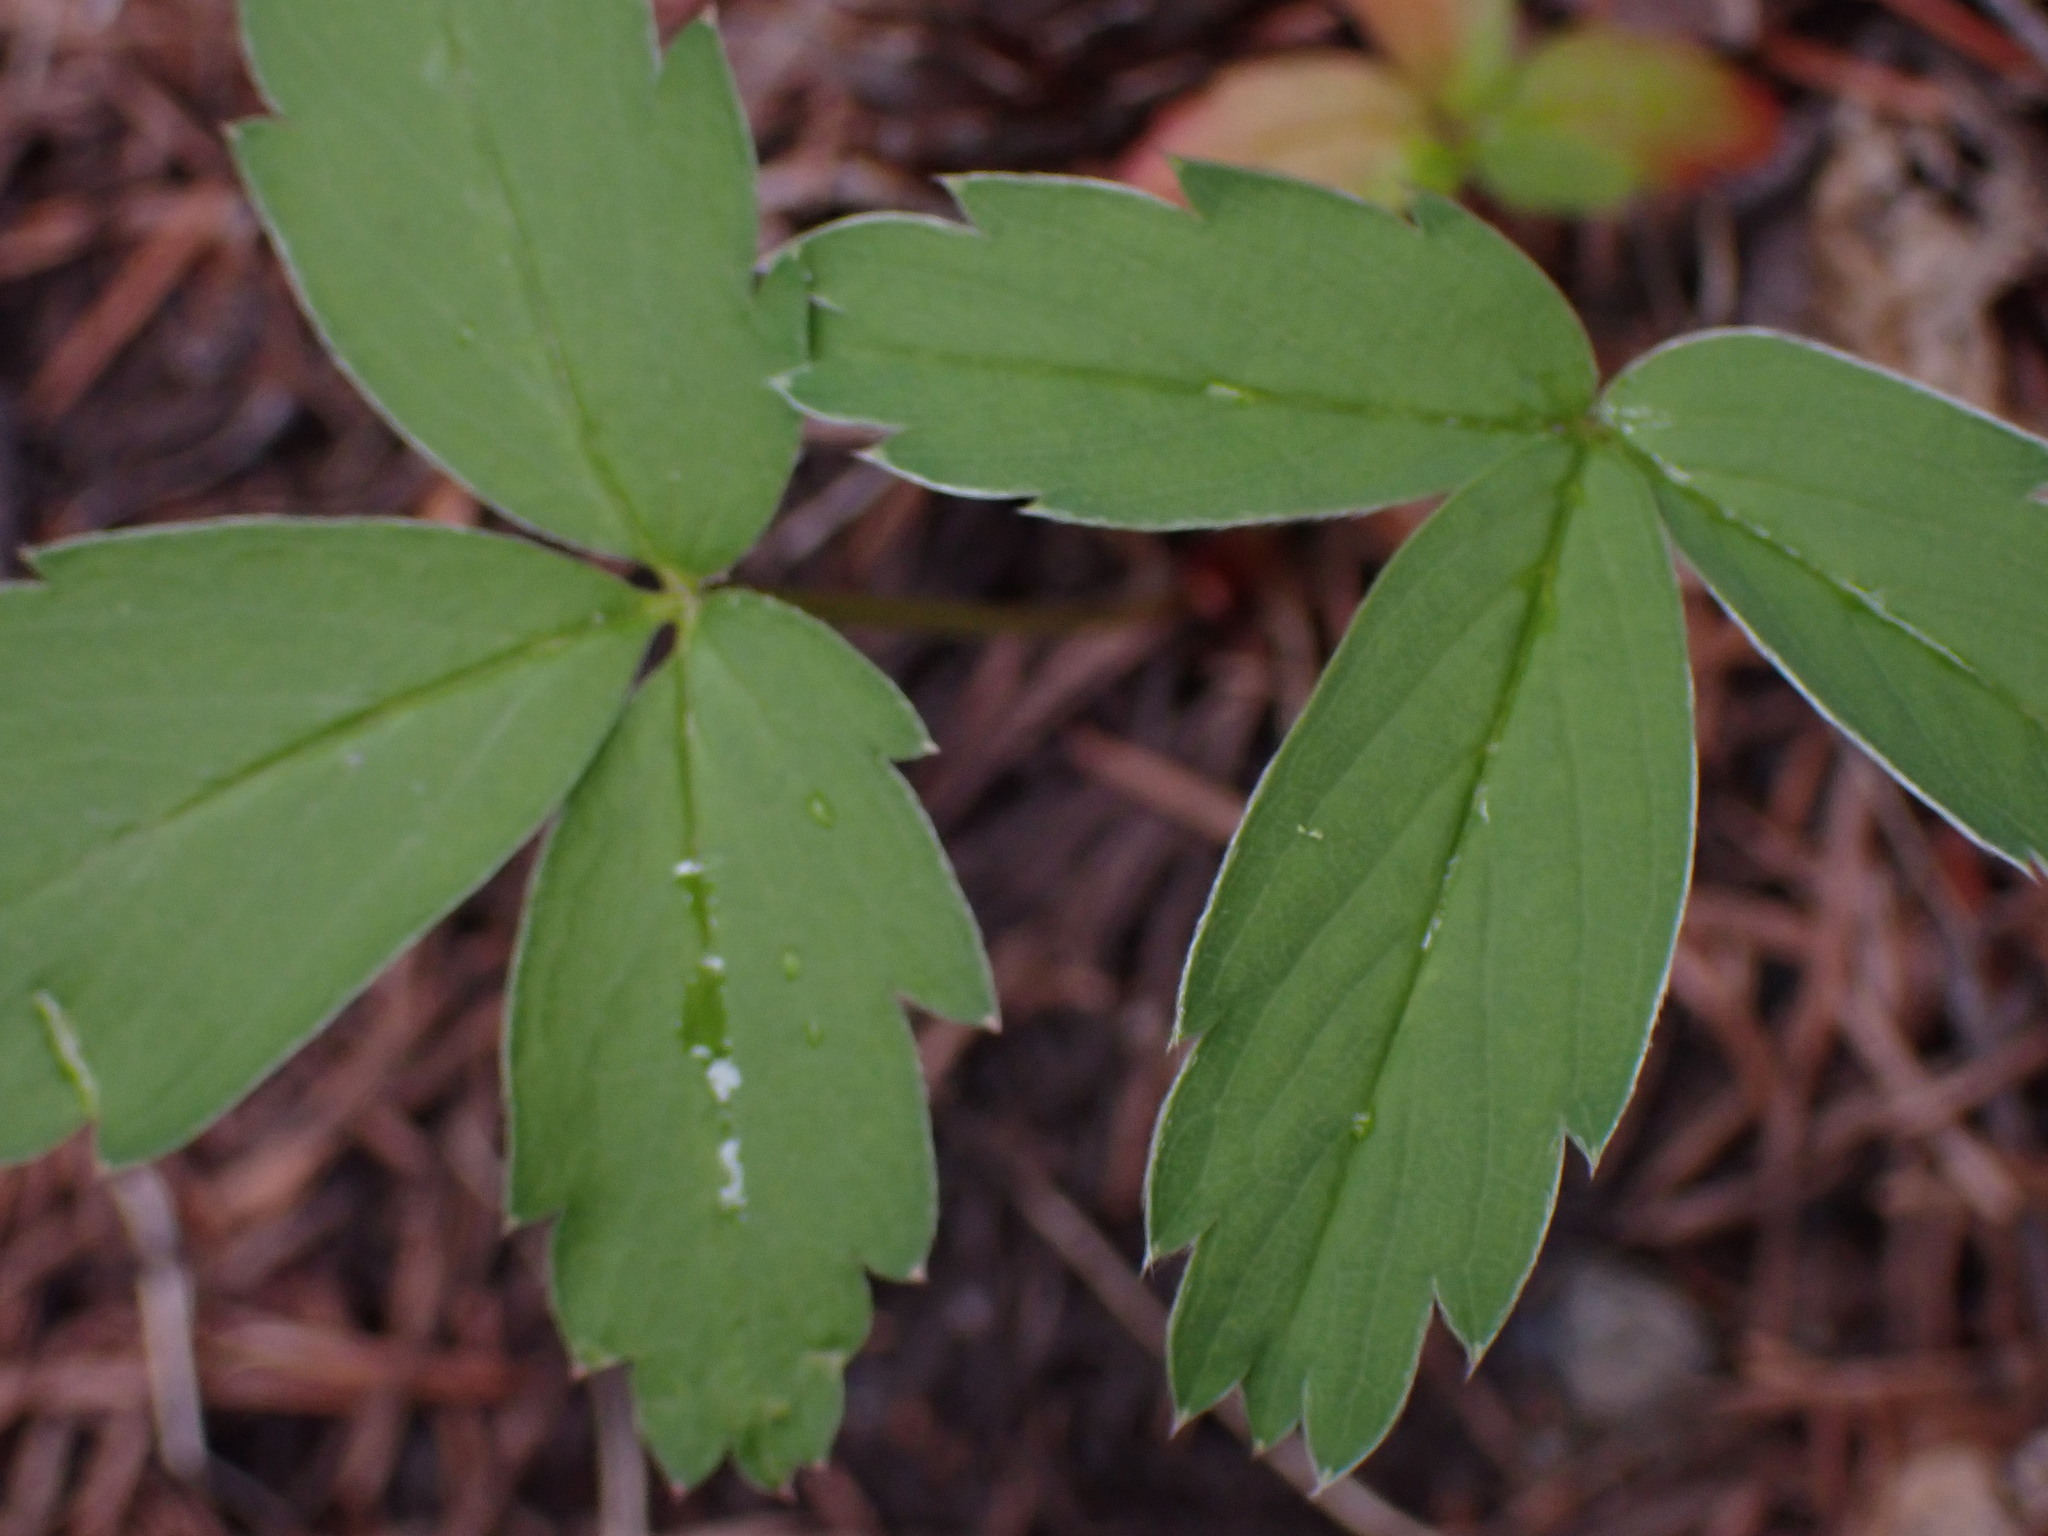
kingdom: Plantae
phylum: Tracheophyta
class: Magnoliopsida
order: Rosales
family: Rosaceae
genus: Fragaria
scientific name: Fragaria virginiana
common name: Thickleaved wild strawberry
